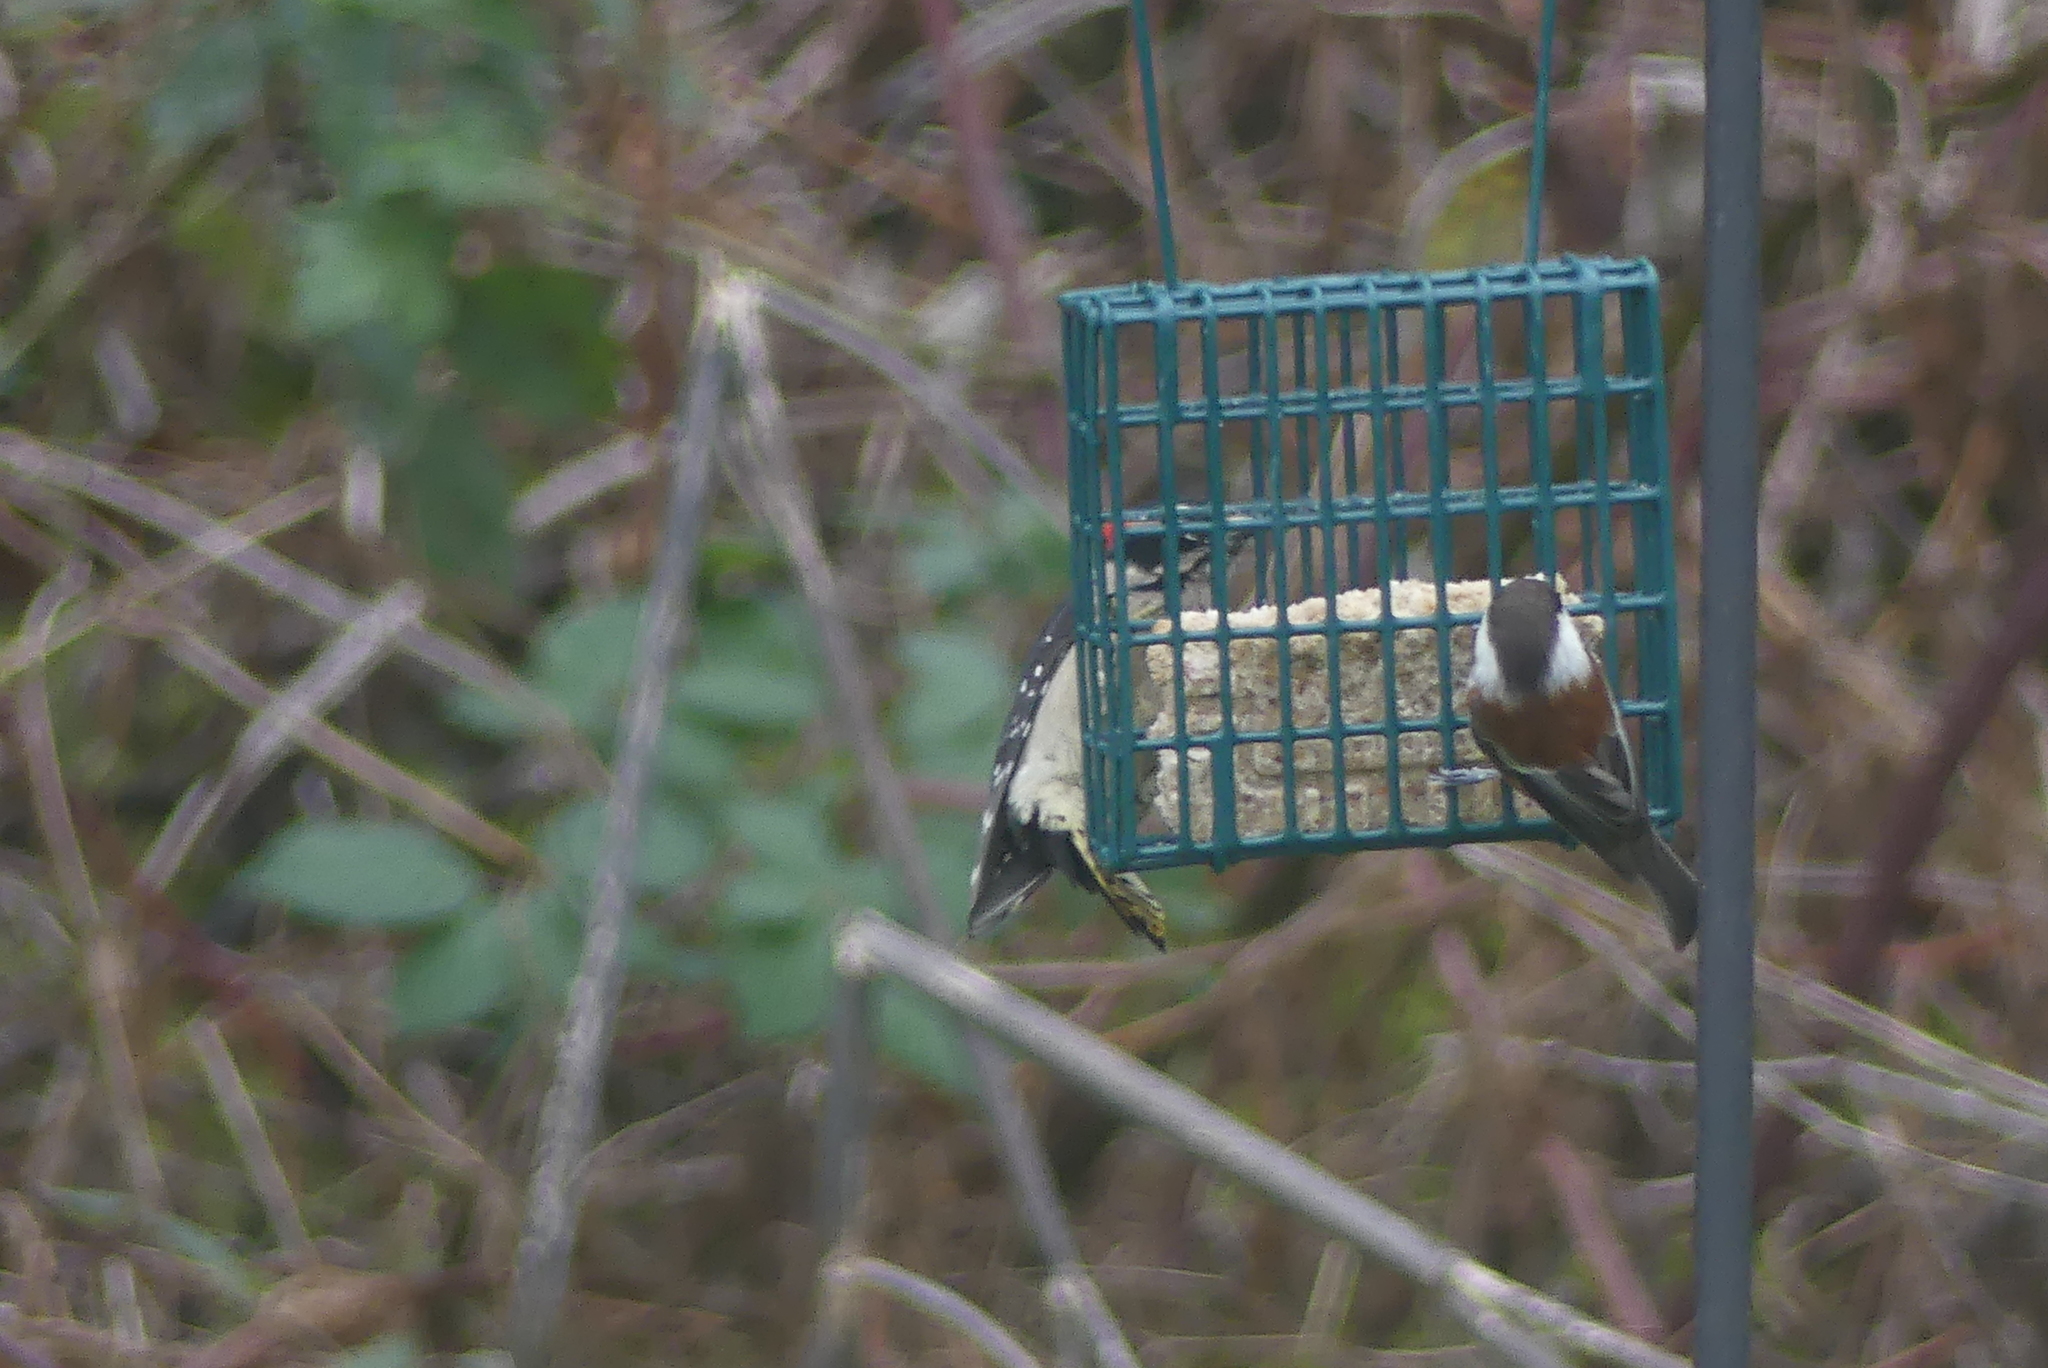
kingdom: Animalia
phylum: Chordata
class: Aves
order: Piciformes
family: Picidae
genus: Dryobates
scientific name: Dryobates pubescens
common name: Downy woodpecker
